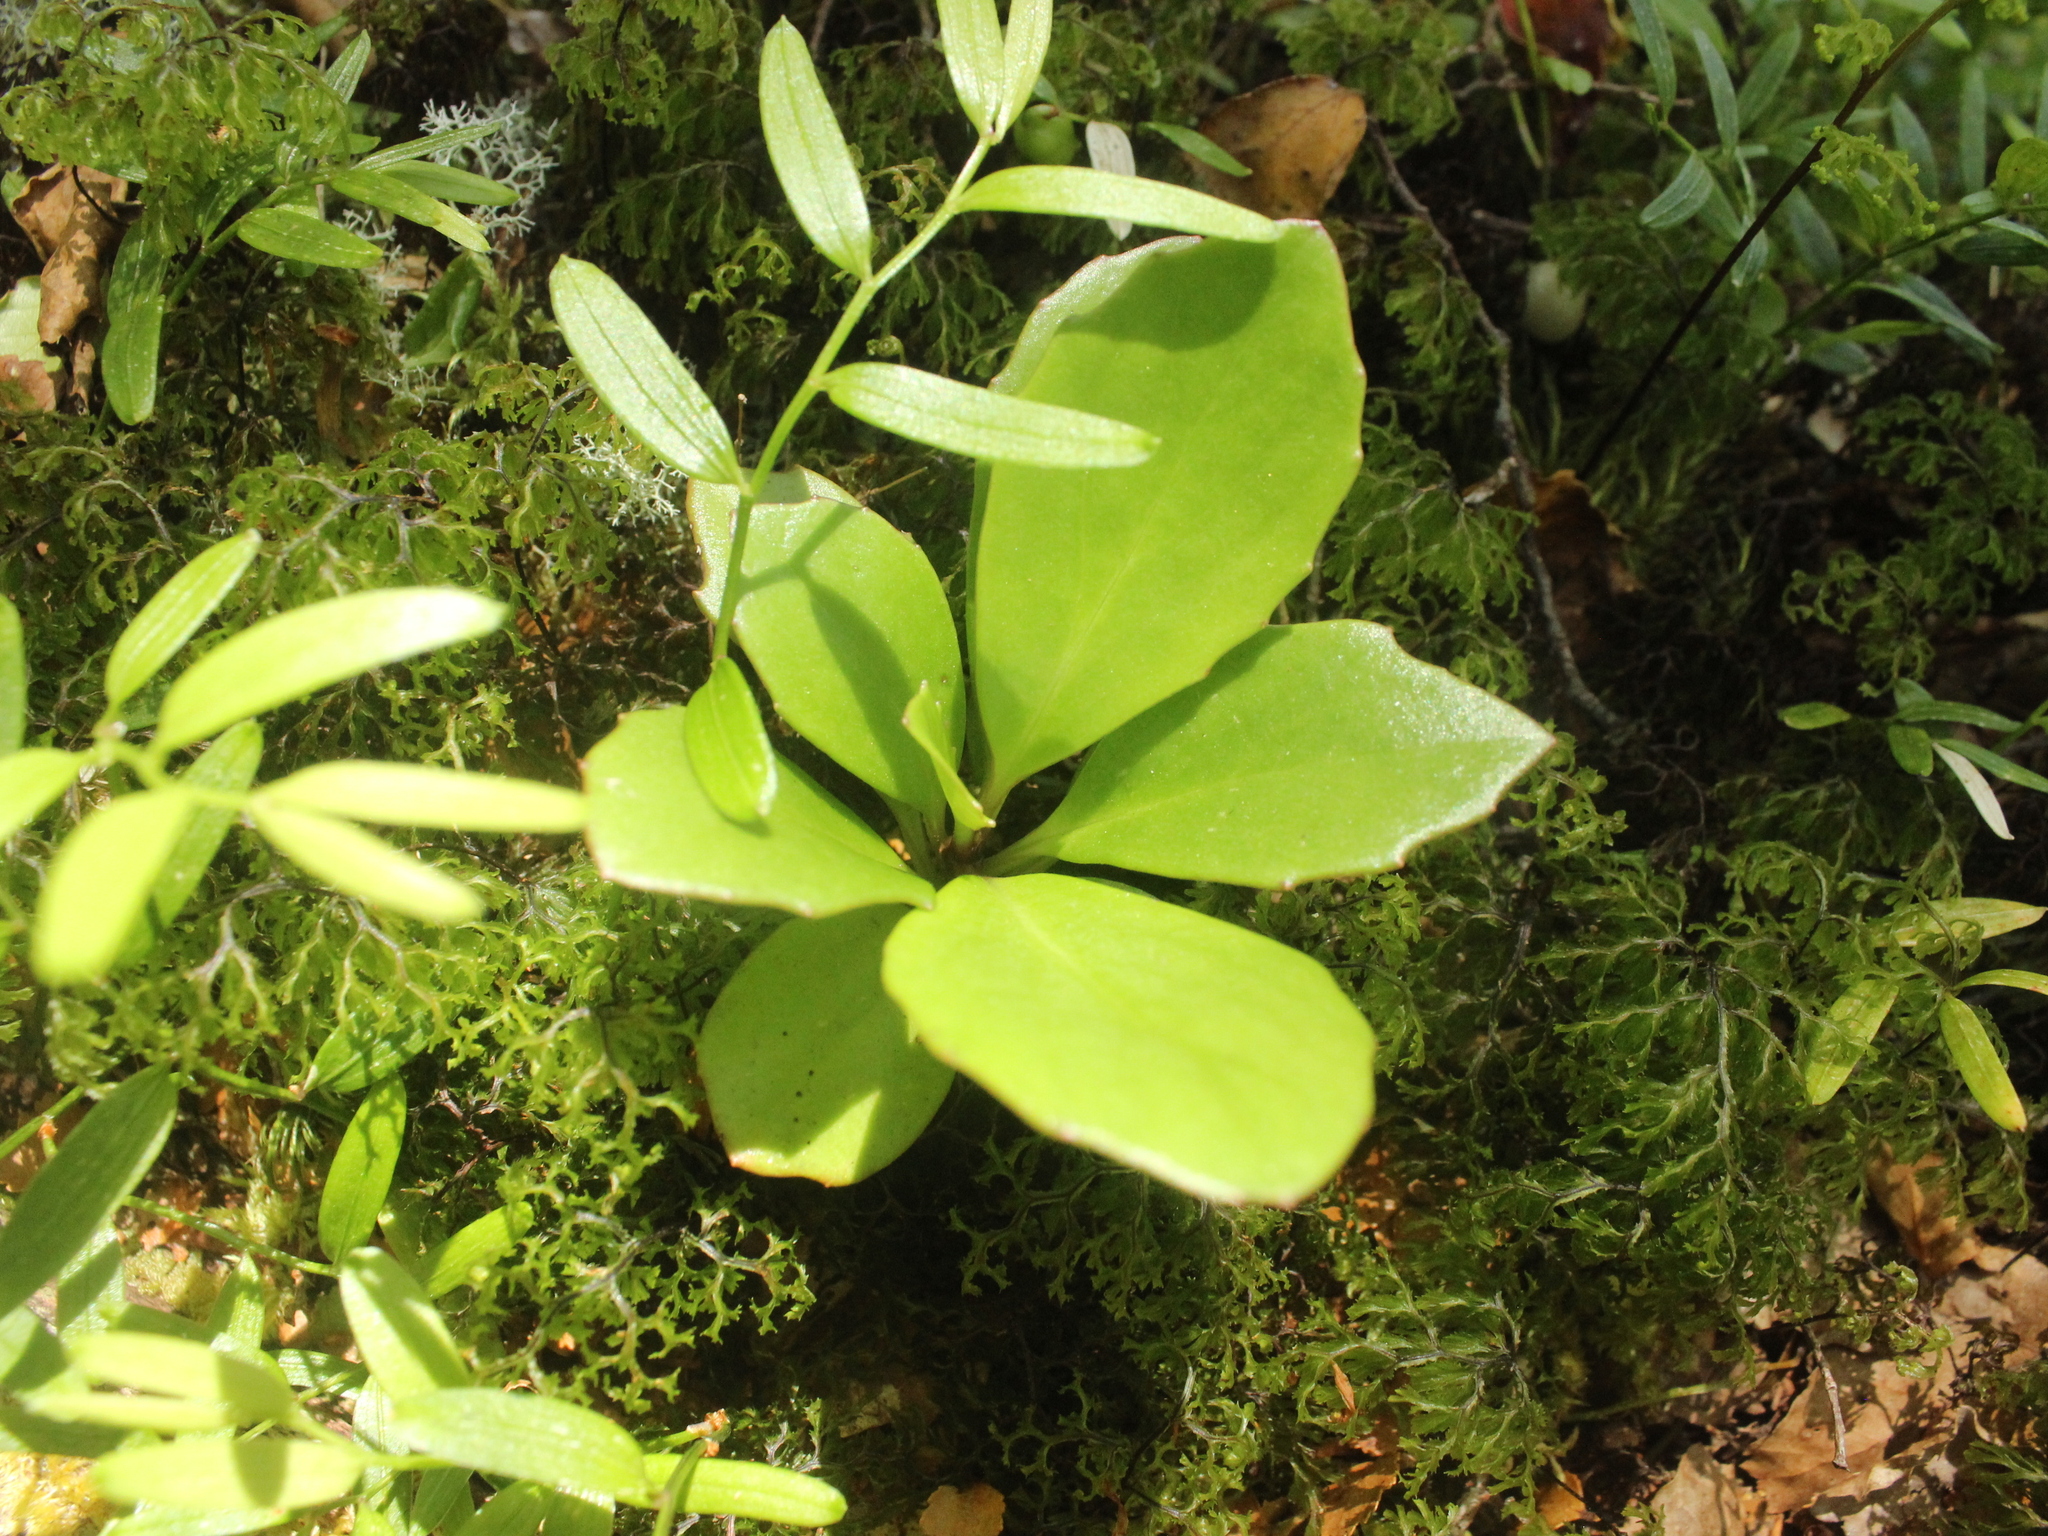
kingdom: Plantae
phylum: Tracheophyta
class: Magnoliopsida
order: Asterales
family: Asteraceae
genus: Brachyglottis
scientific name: Brachyglottis kirkii
